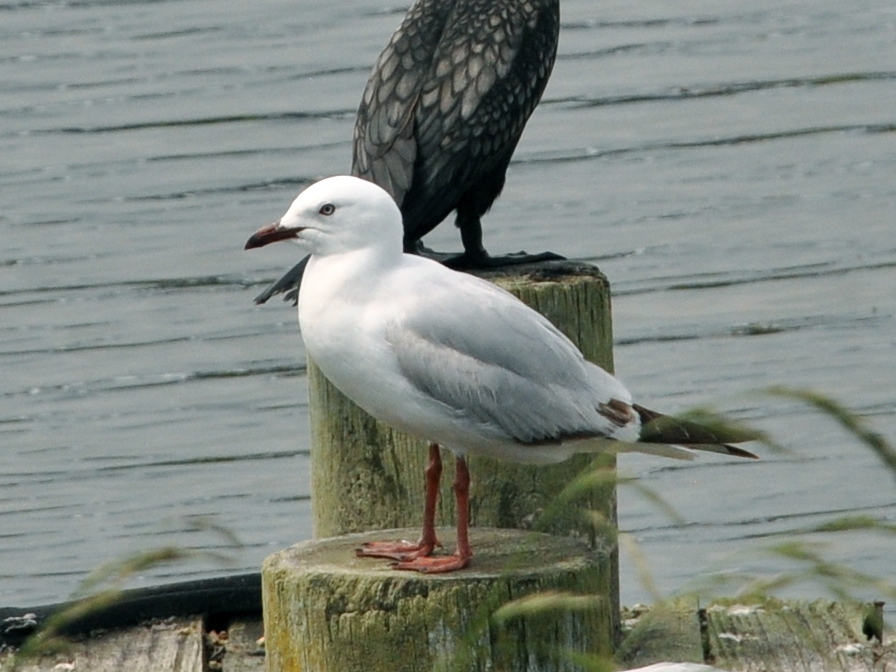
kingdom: Animalia
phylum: Chordata
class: Aves
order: Charadriiformes
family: Laridae
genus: Chroicocephalus
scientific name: Chroicocephalus novaehollandiae
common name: Silver gull
